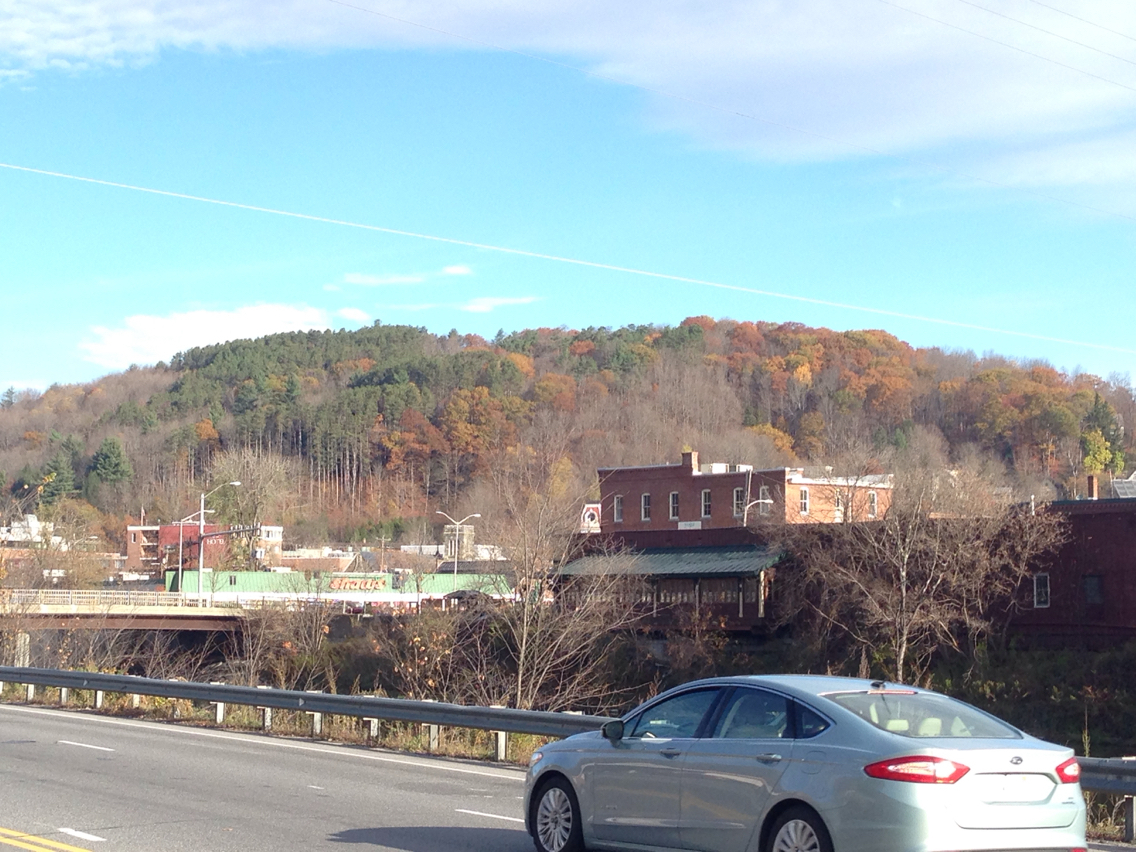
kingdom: Plantae
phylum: Tracheophyta
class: Magnoliopsida
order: Fagales
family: Fagaceae
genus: Quercus
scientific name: Quercus rubra
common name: Red oak
